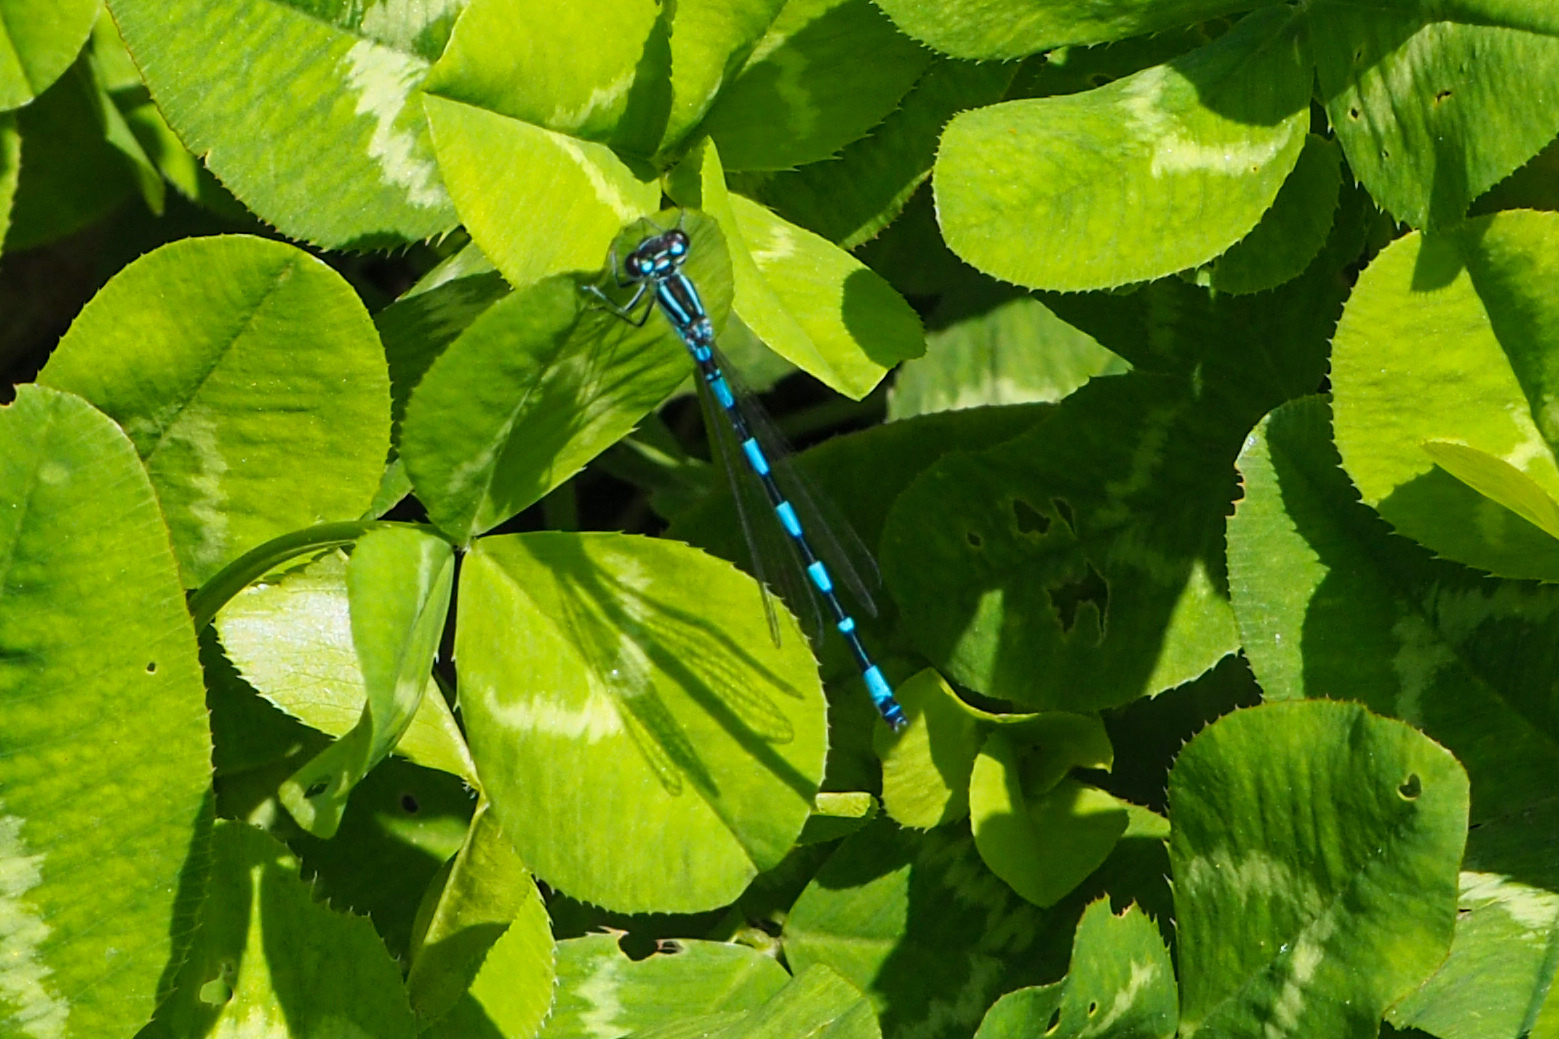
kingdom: Animalia
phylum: Arthropoda
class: Insecta
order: Odonata
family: Coenagrionidae
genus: Coenagrion
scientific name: Coenagrion castellani
